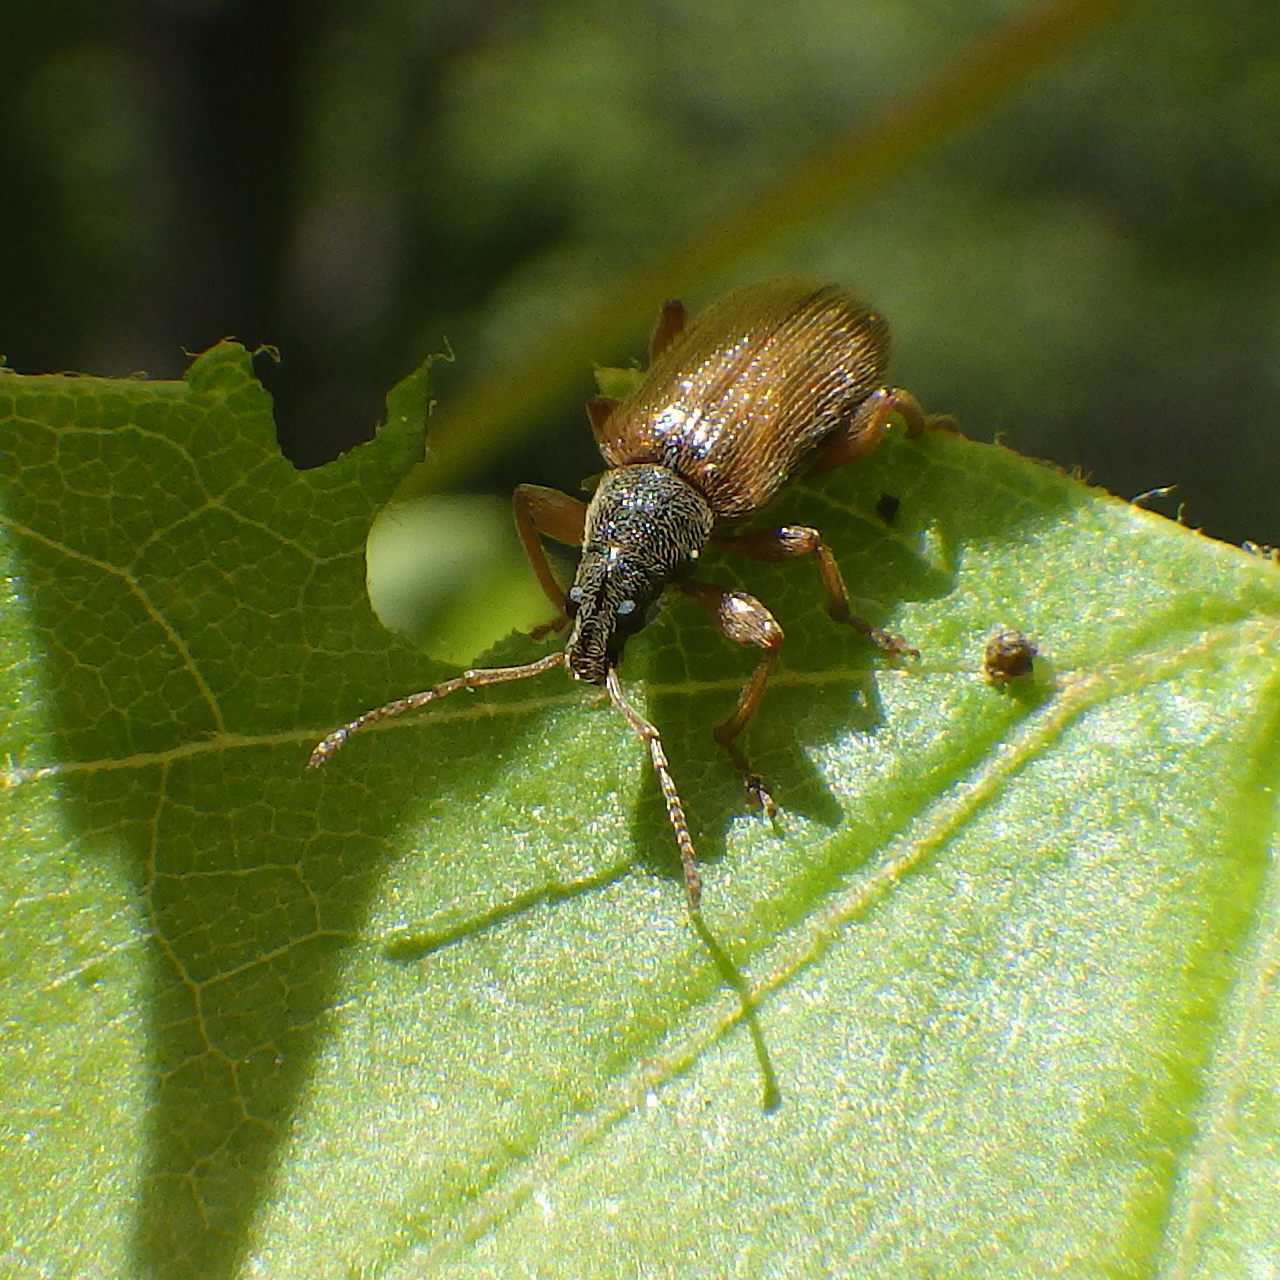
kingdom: Animalia
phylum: Arthropoda
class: Insecta
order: Coleoptera
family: Curculionidae
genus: Phyllobius
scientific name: Phyllobius oblongus
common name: Brown leaf weevil
